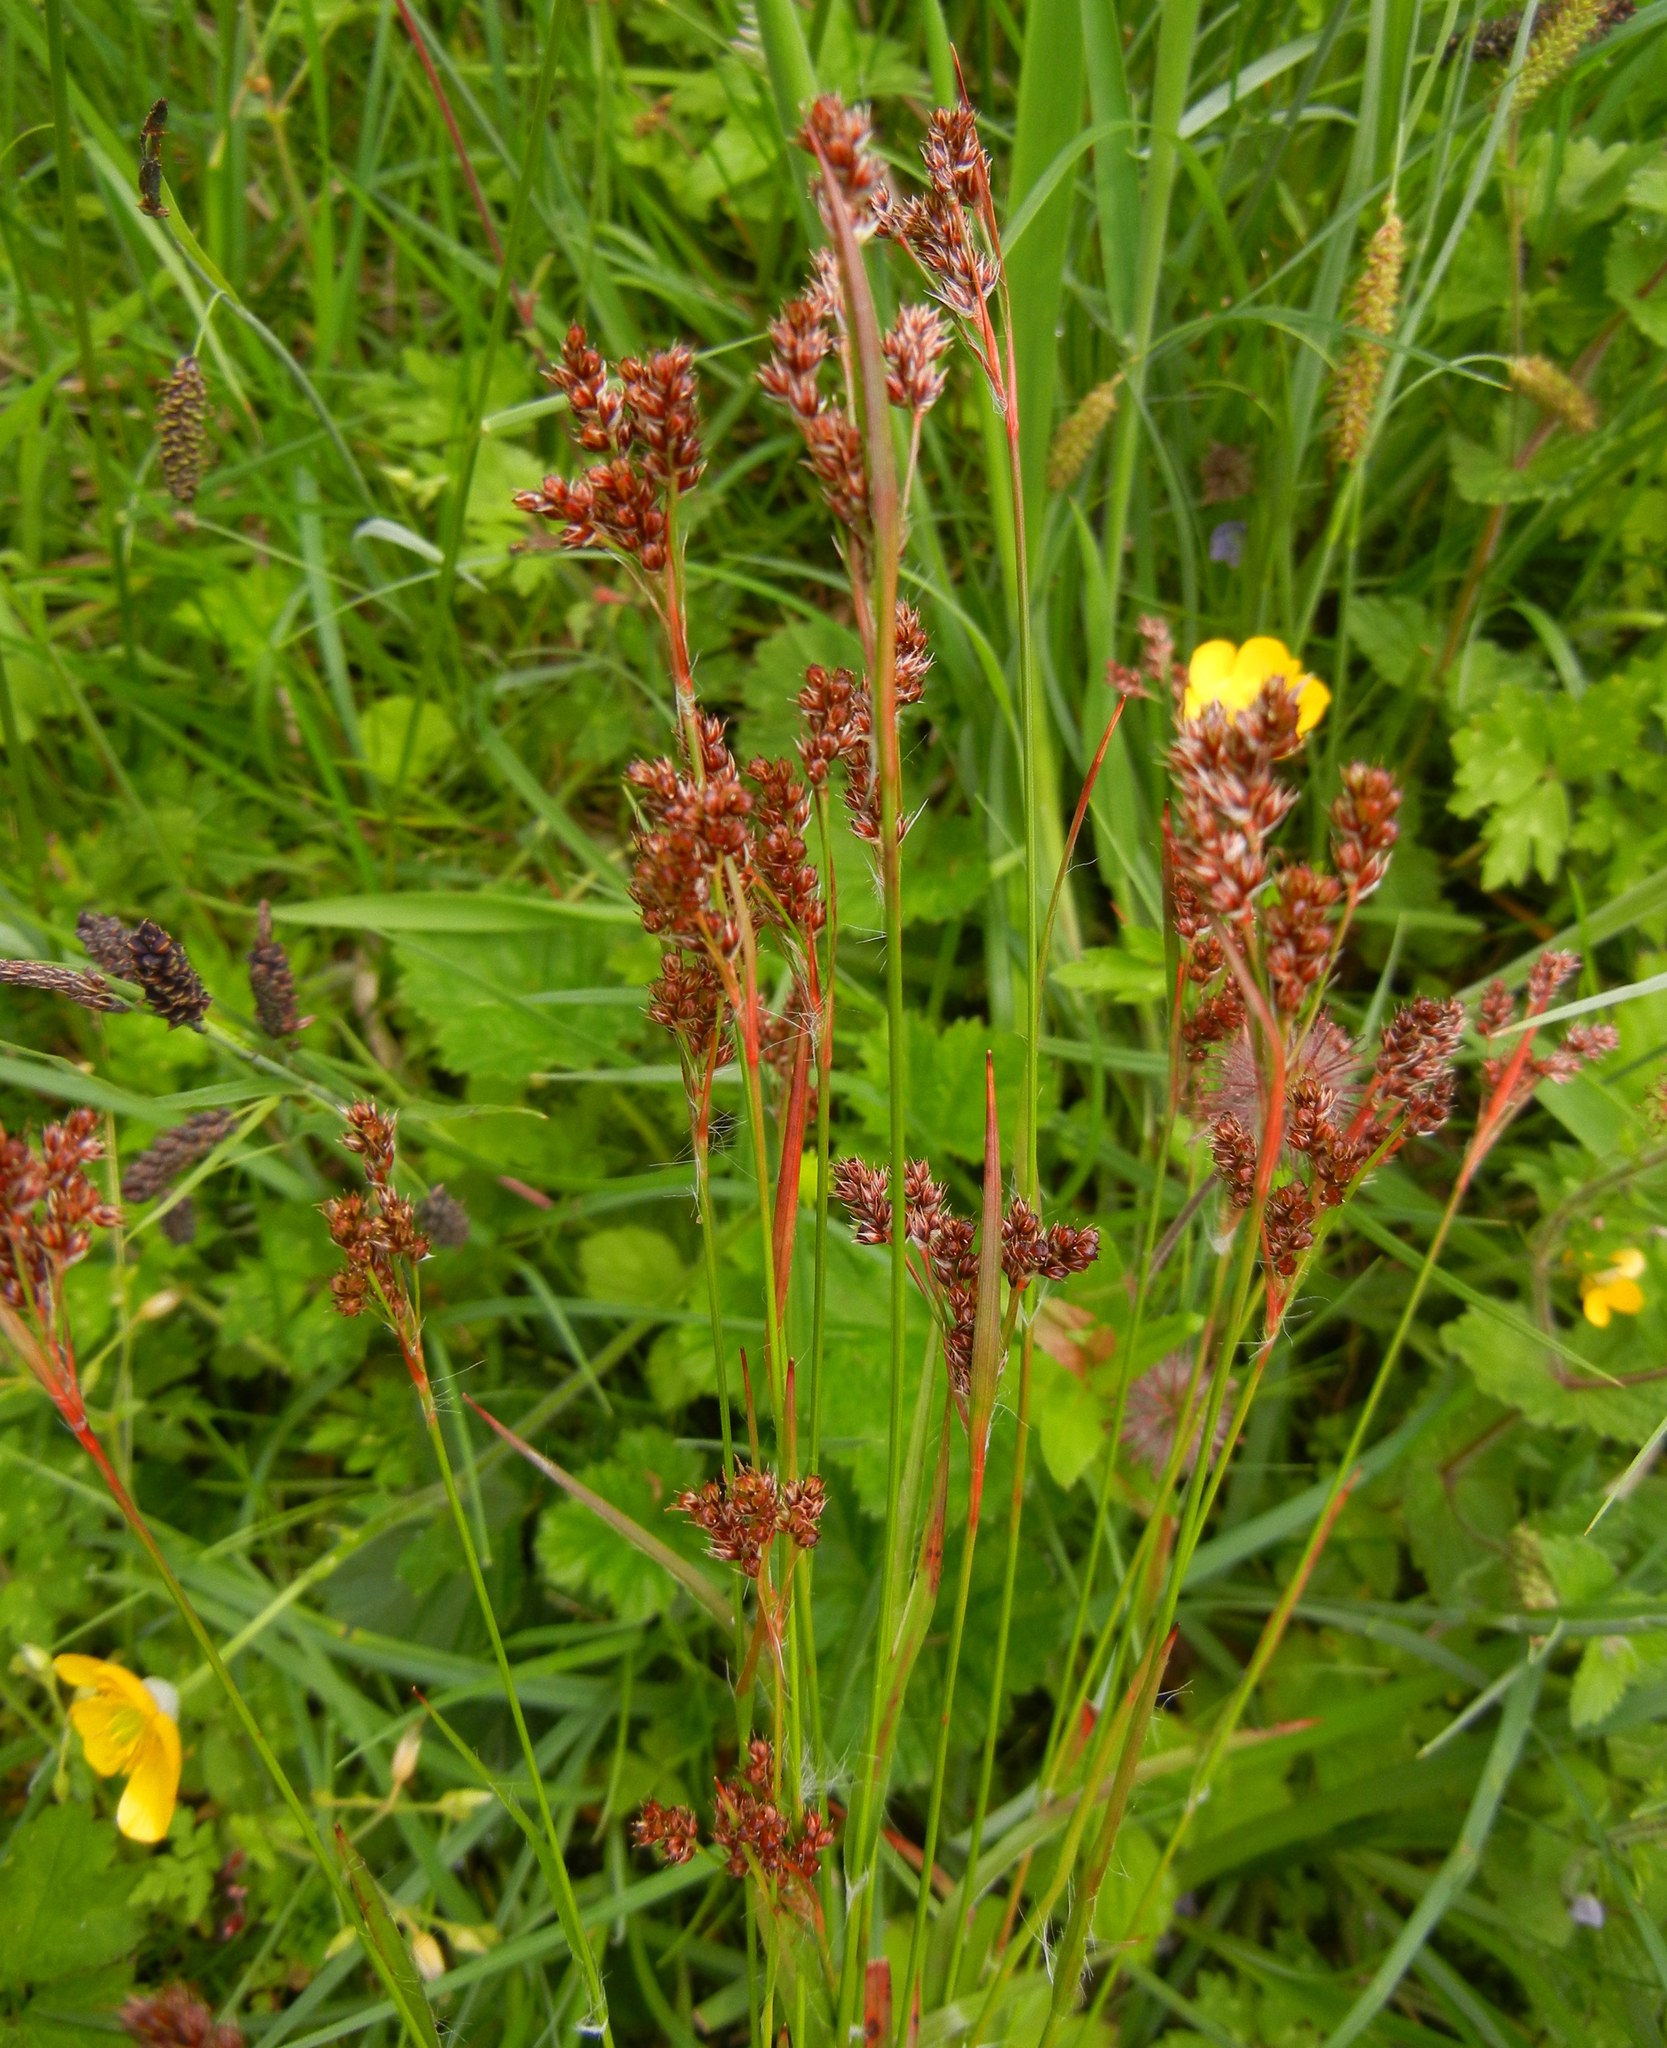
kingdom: Plantae
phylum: Tracheophyta
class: Liliopsida
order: Poales
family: Juncaceae
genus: Luzula
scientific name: Luzula multiflora
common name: Heath wood-rush
